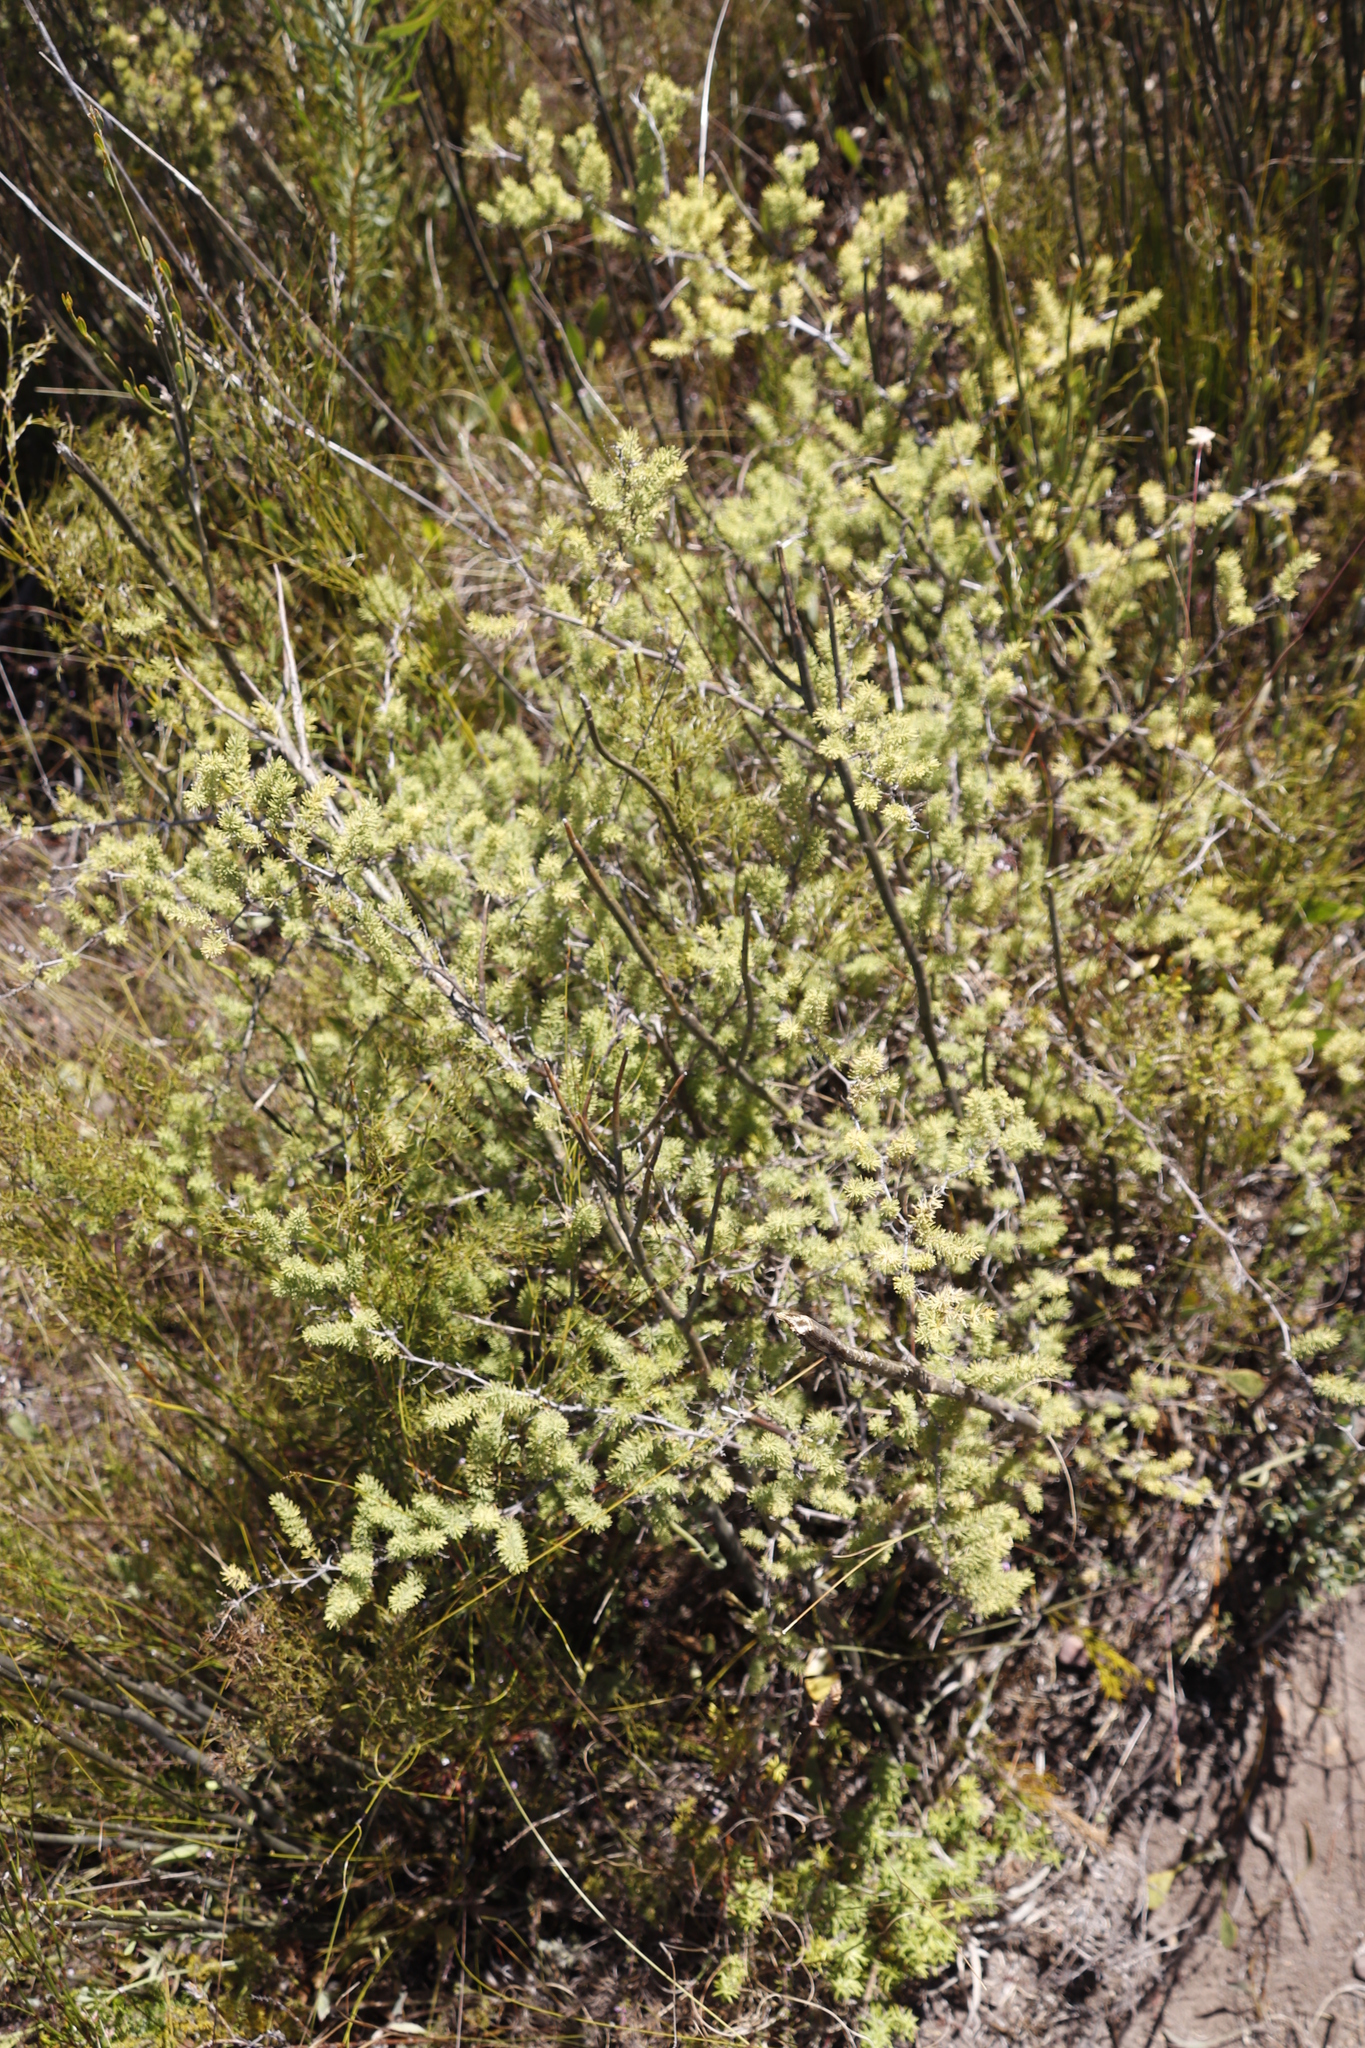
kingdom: Plantae
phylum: Tracheophyta
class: Liliopsida
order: Asparagales
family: Asparagaceae
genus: Asparagus
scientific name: Asparagus rubicundus
